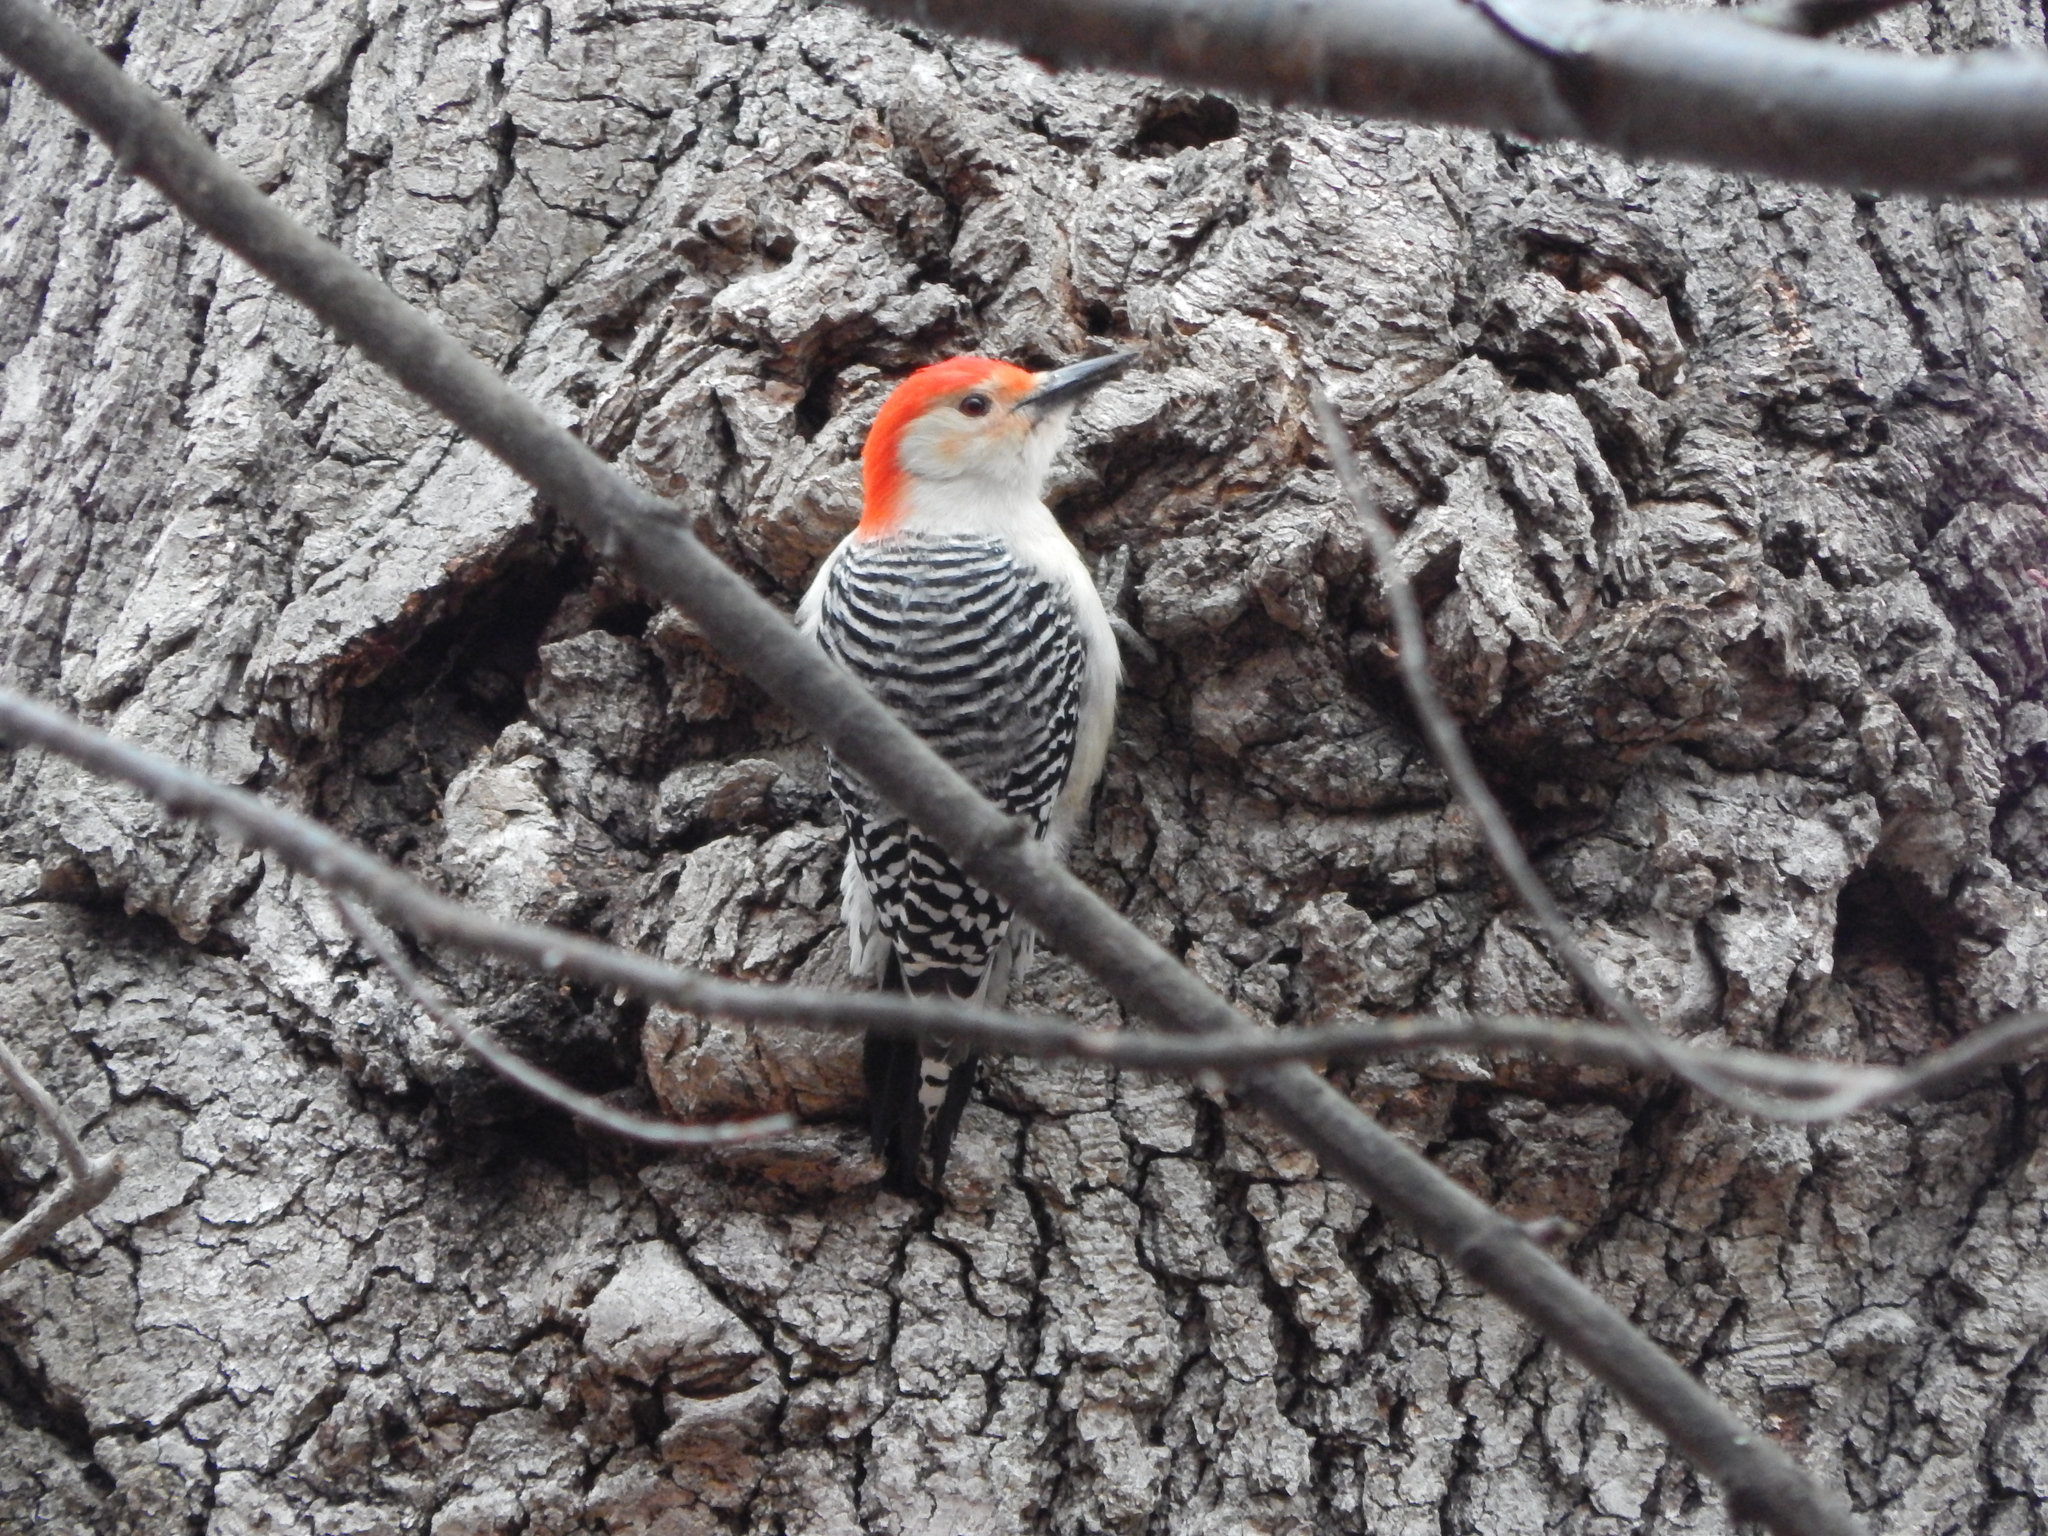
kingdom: Animalia
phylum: Chordata
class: Aves
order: Piciformes
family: Picidae
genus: Melanerpes
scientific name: Melanerpes carolinus
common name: Red-bellied woodpecker
